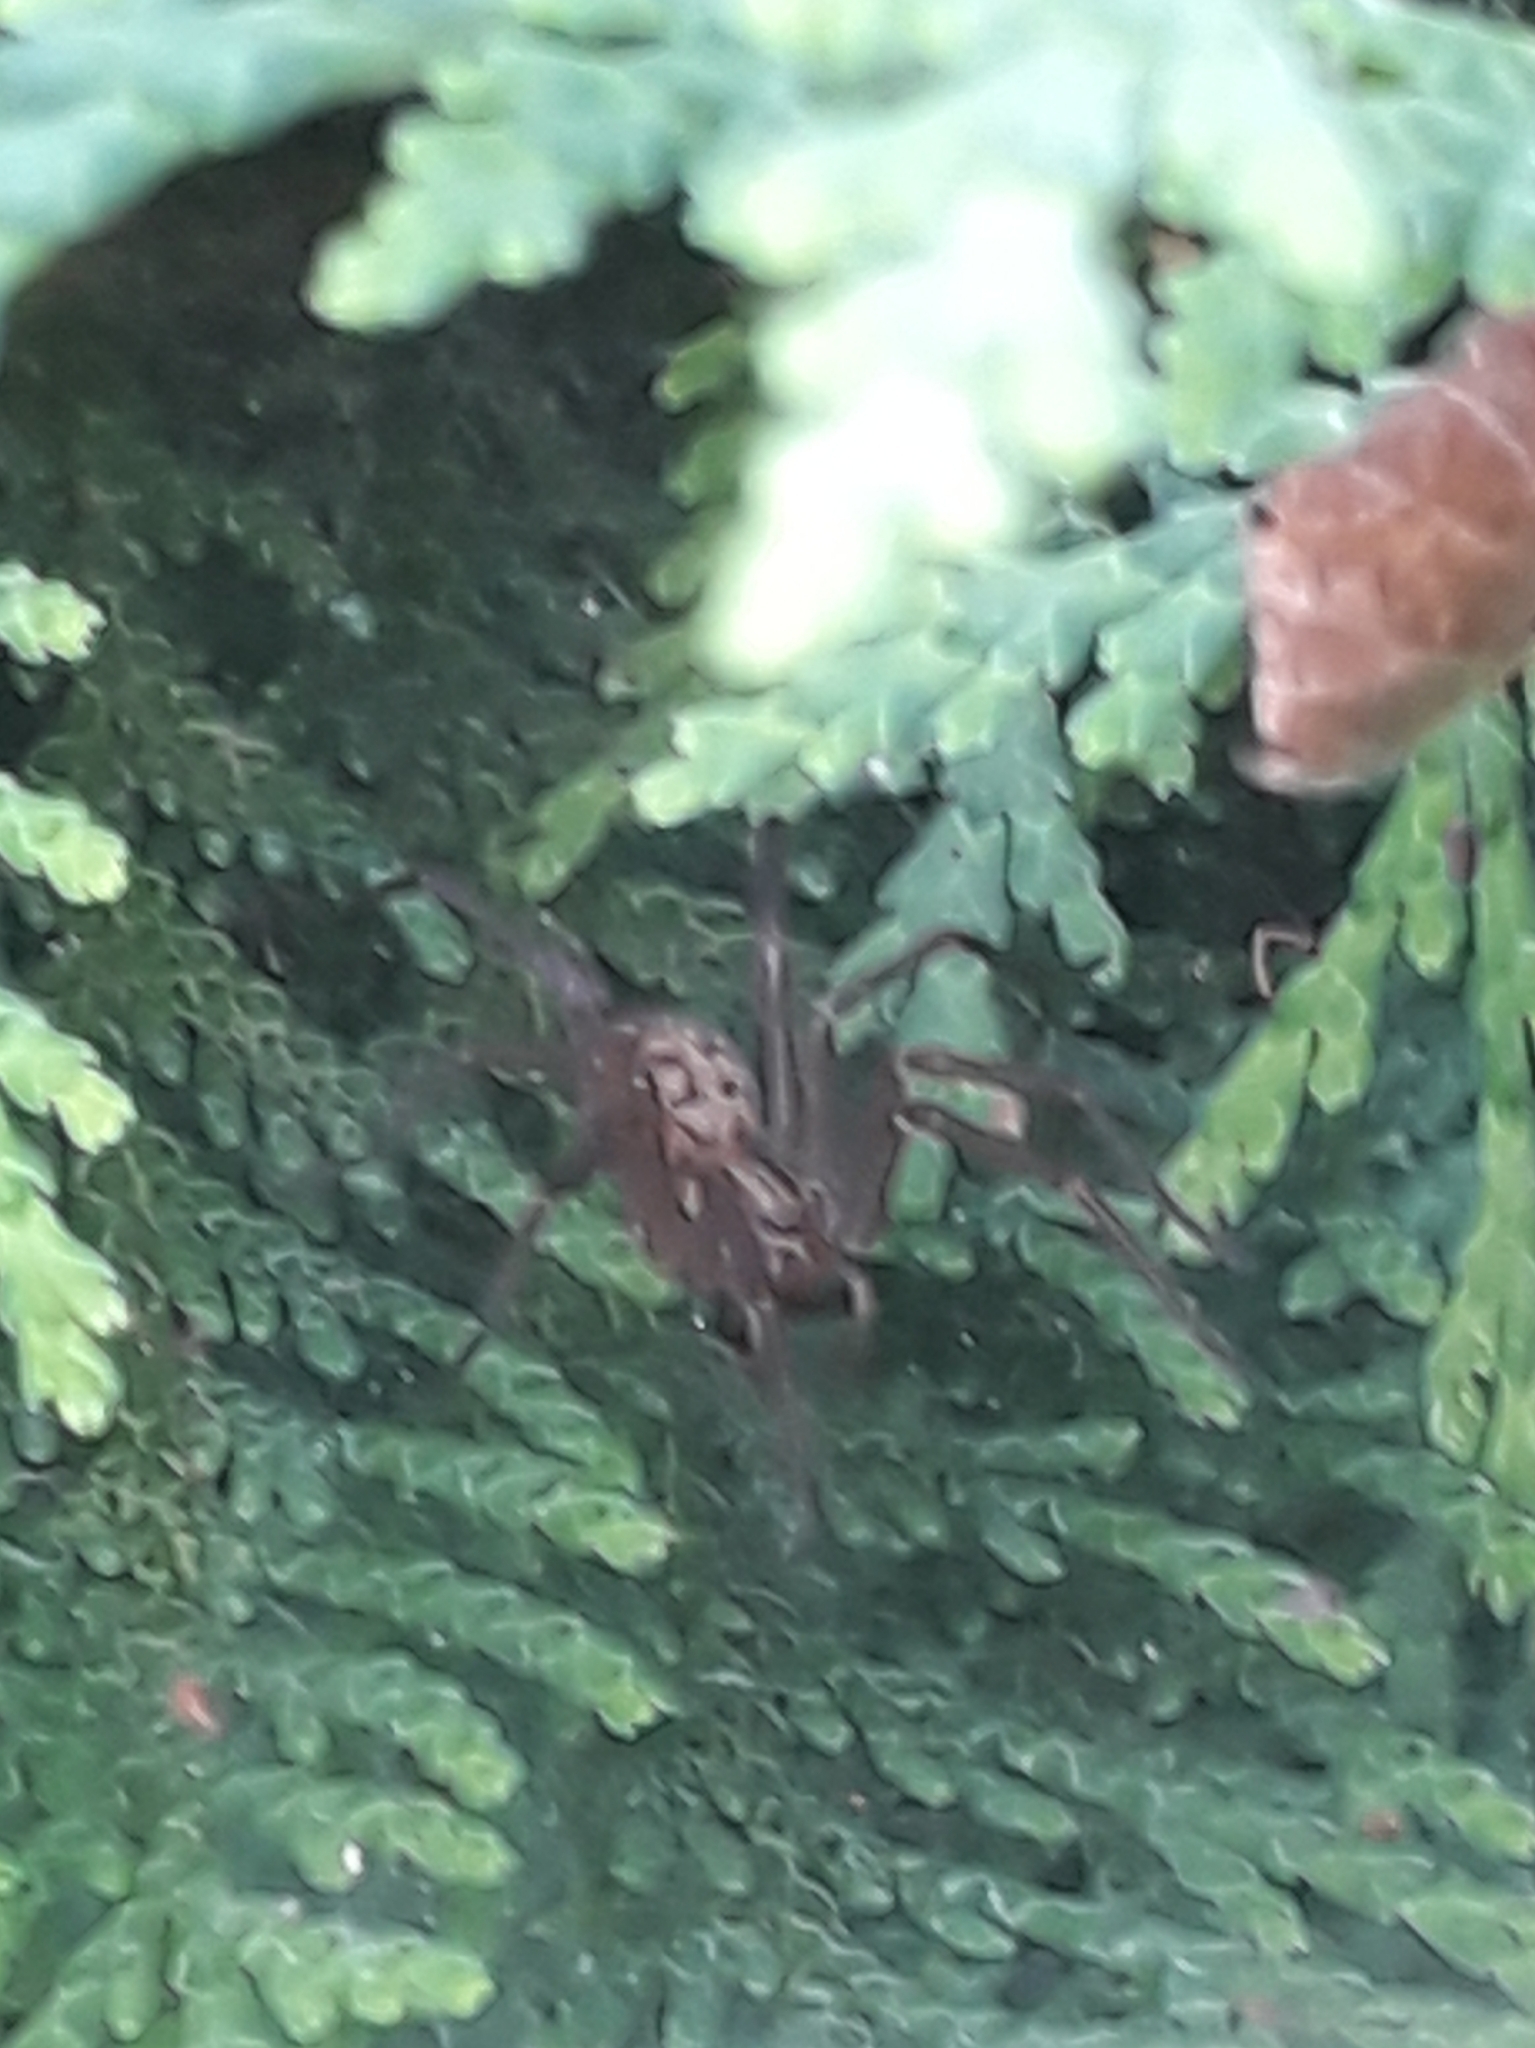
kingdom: Animalia
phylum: Arthropoda
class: Arachnida
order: Araneae
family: Agelenidae
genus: Eratigena
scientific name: Eratigena atrica
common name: Giant house spider
